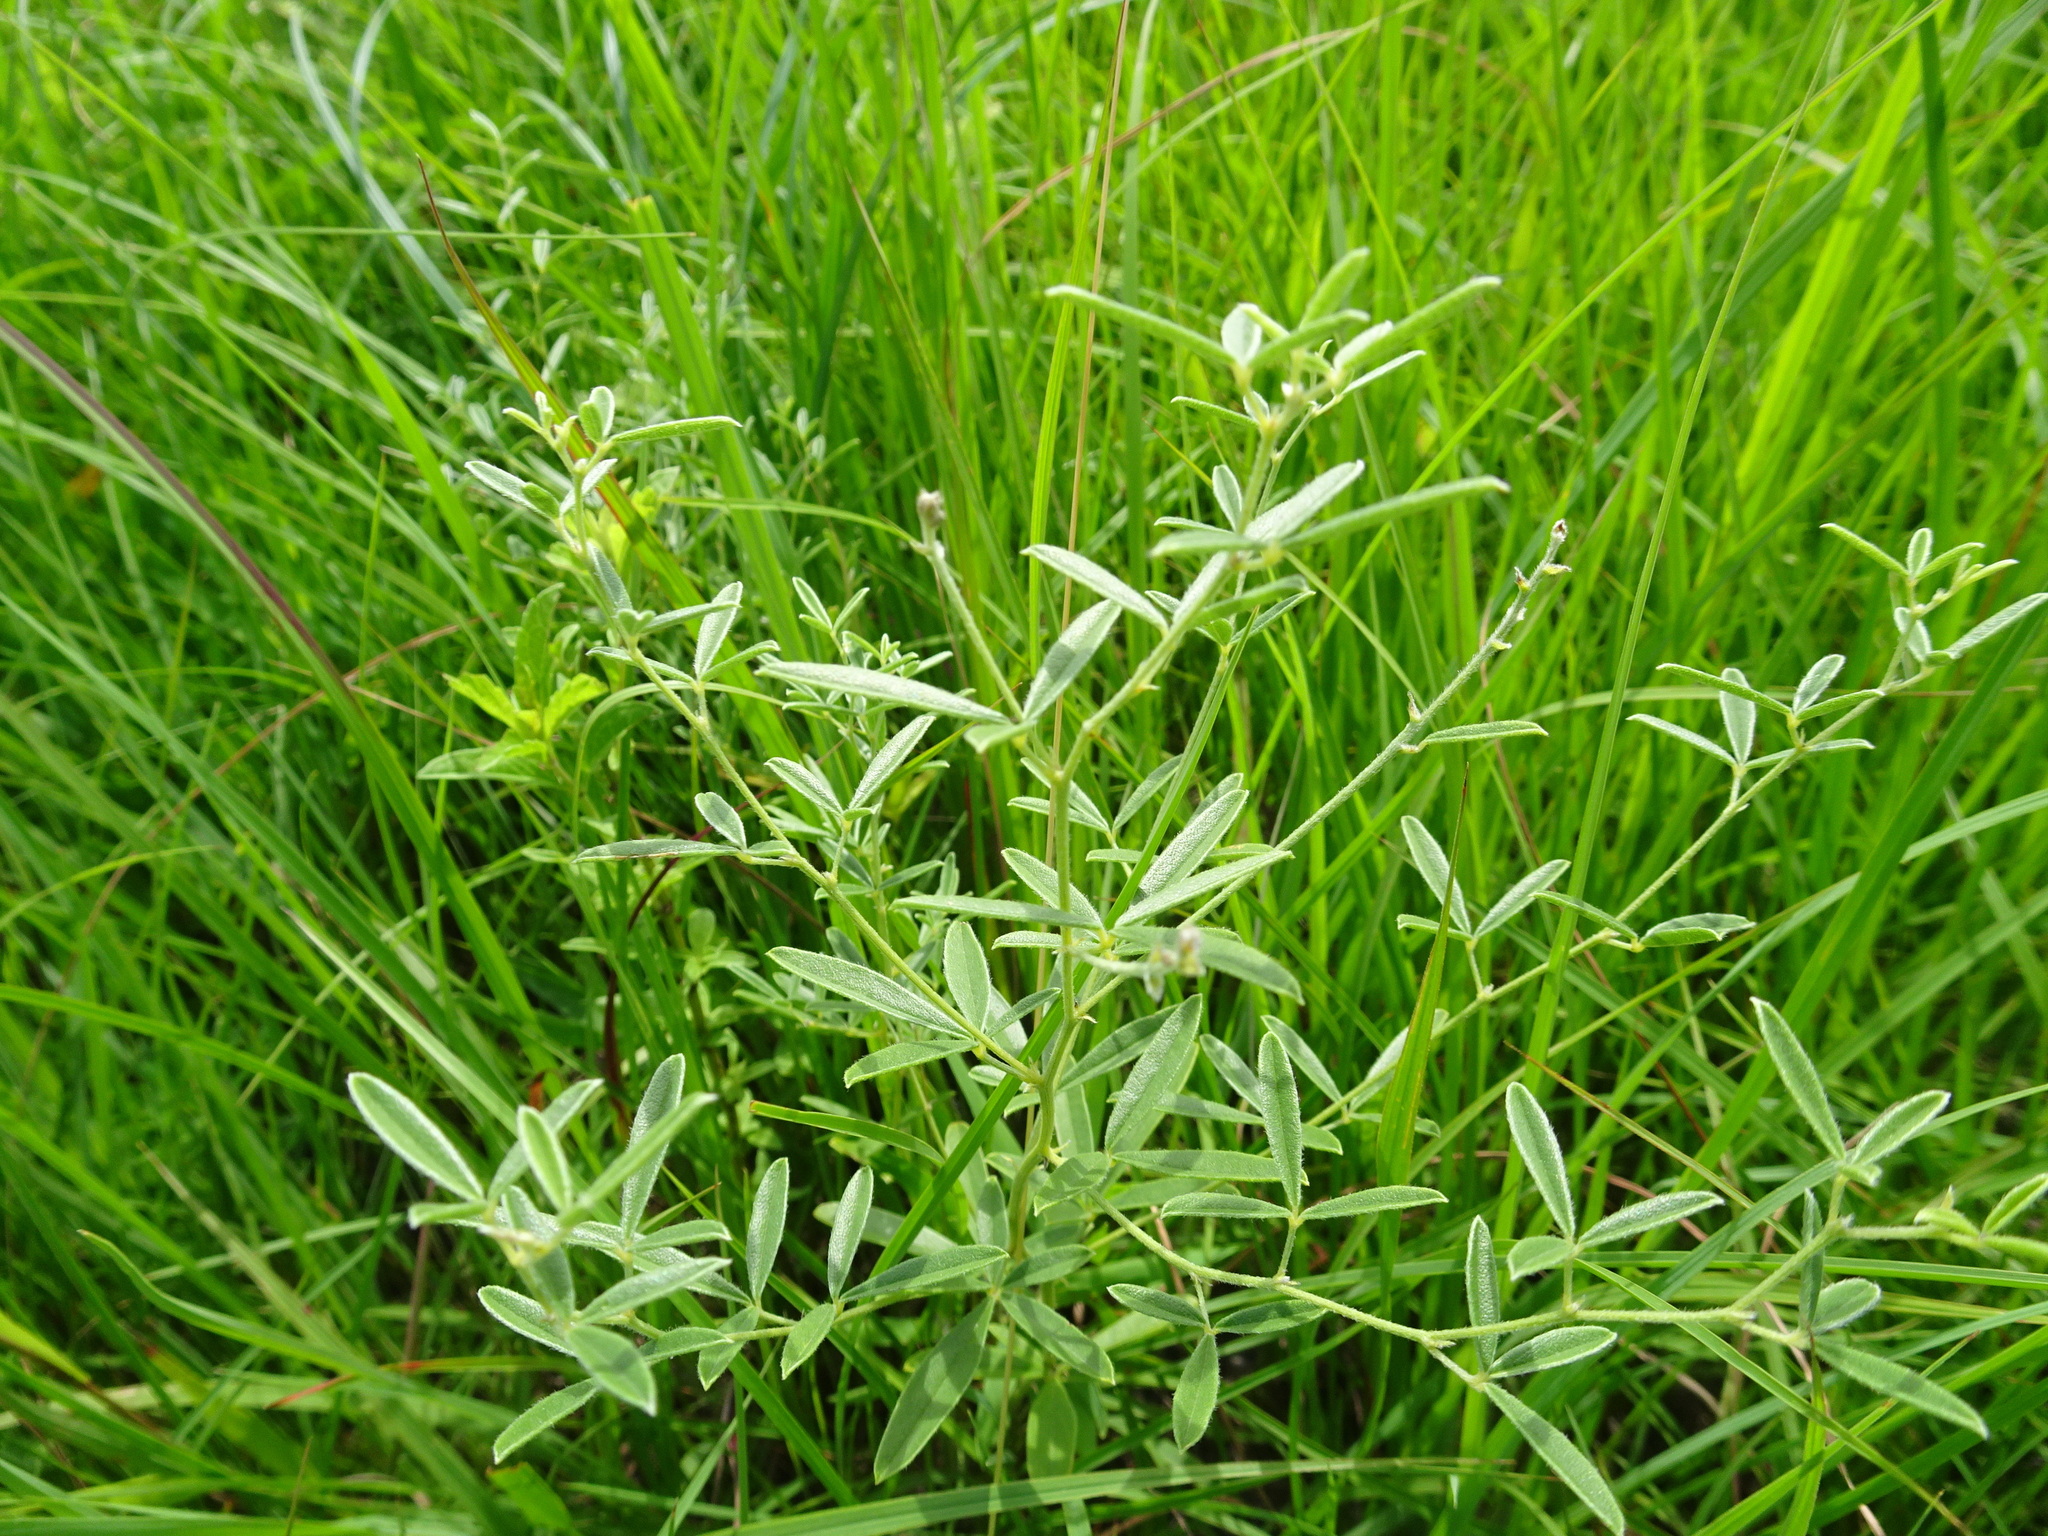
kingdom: Plantae
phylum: Tracheophyta
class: Magnoliopsida
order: Fabales
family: Fabaceae
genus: Pediomelum
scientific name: Pediomelum tenuiflorum
